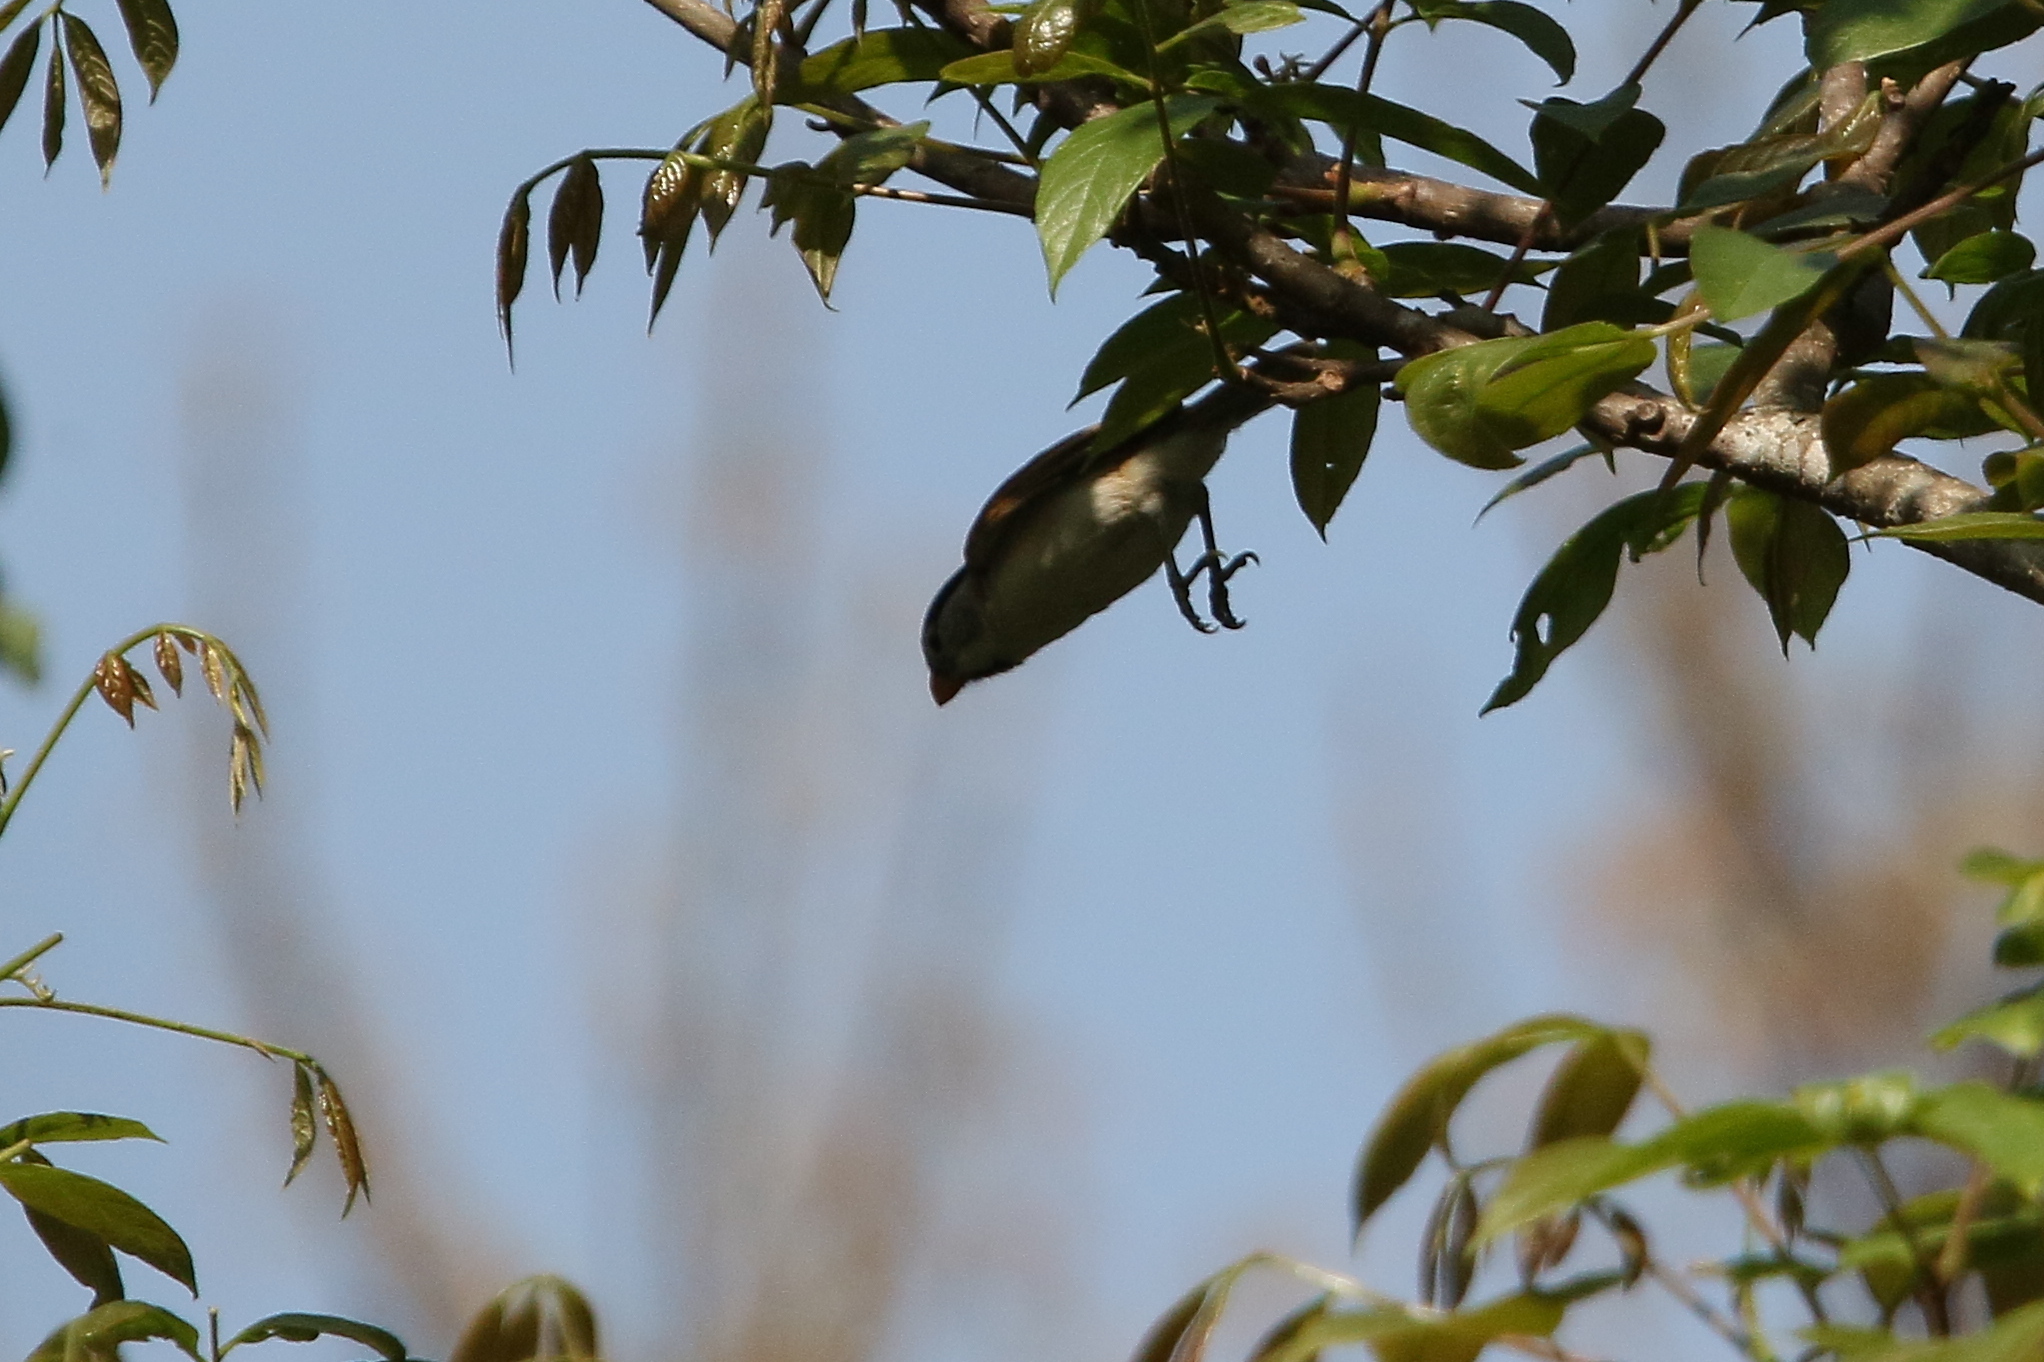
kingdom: Animalia
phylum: Chordata
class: Aves
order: Passeriformes
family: Sylviidae
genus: Psittiparus
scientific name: Psittiparus gularis
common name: Gray-headed parrotbill
